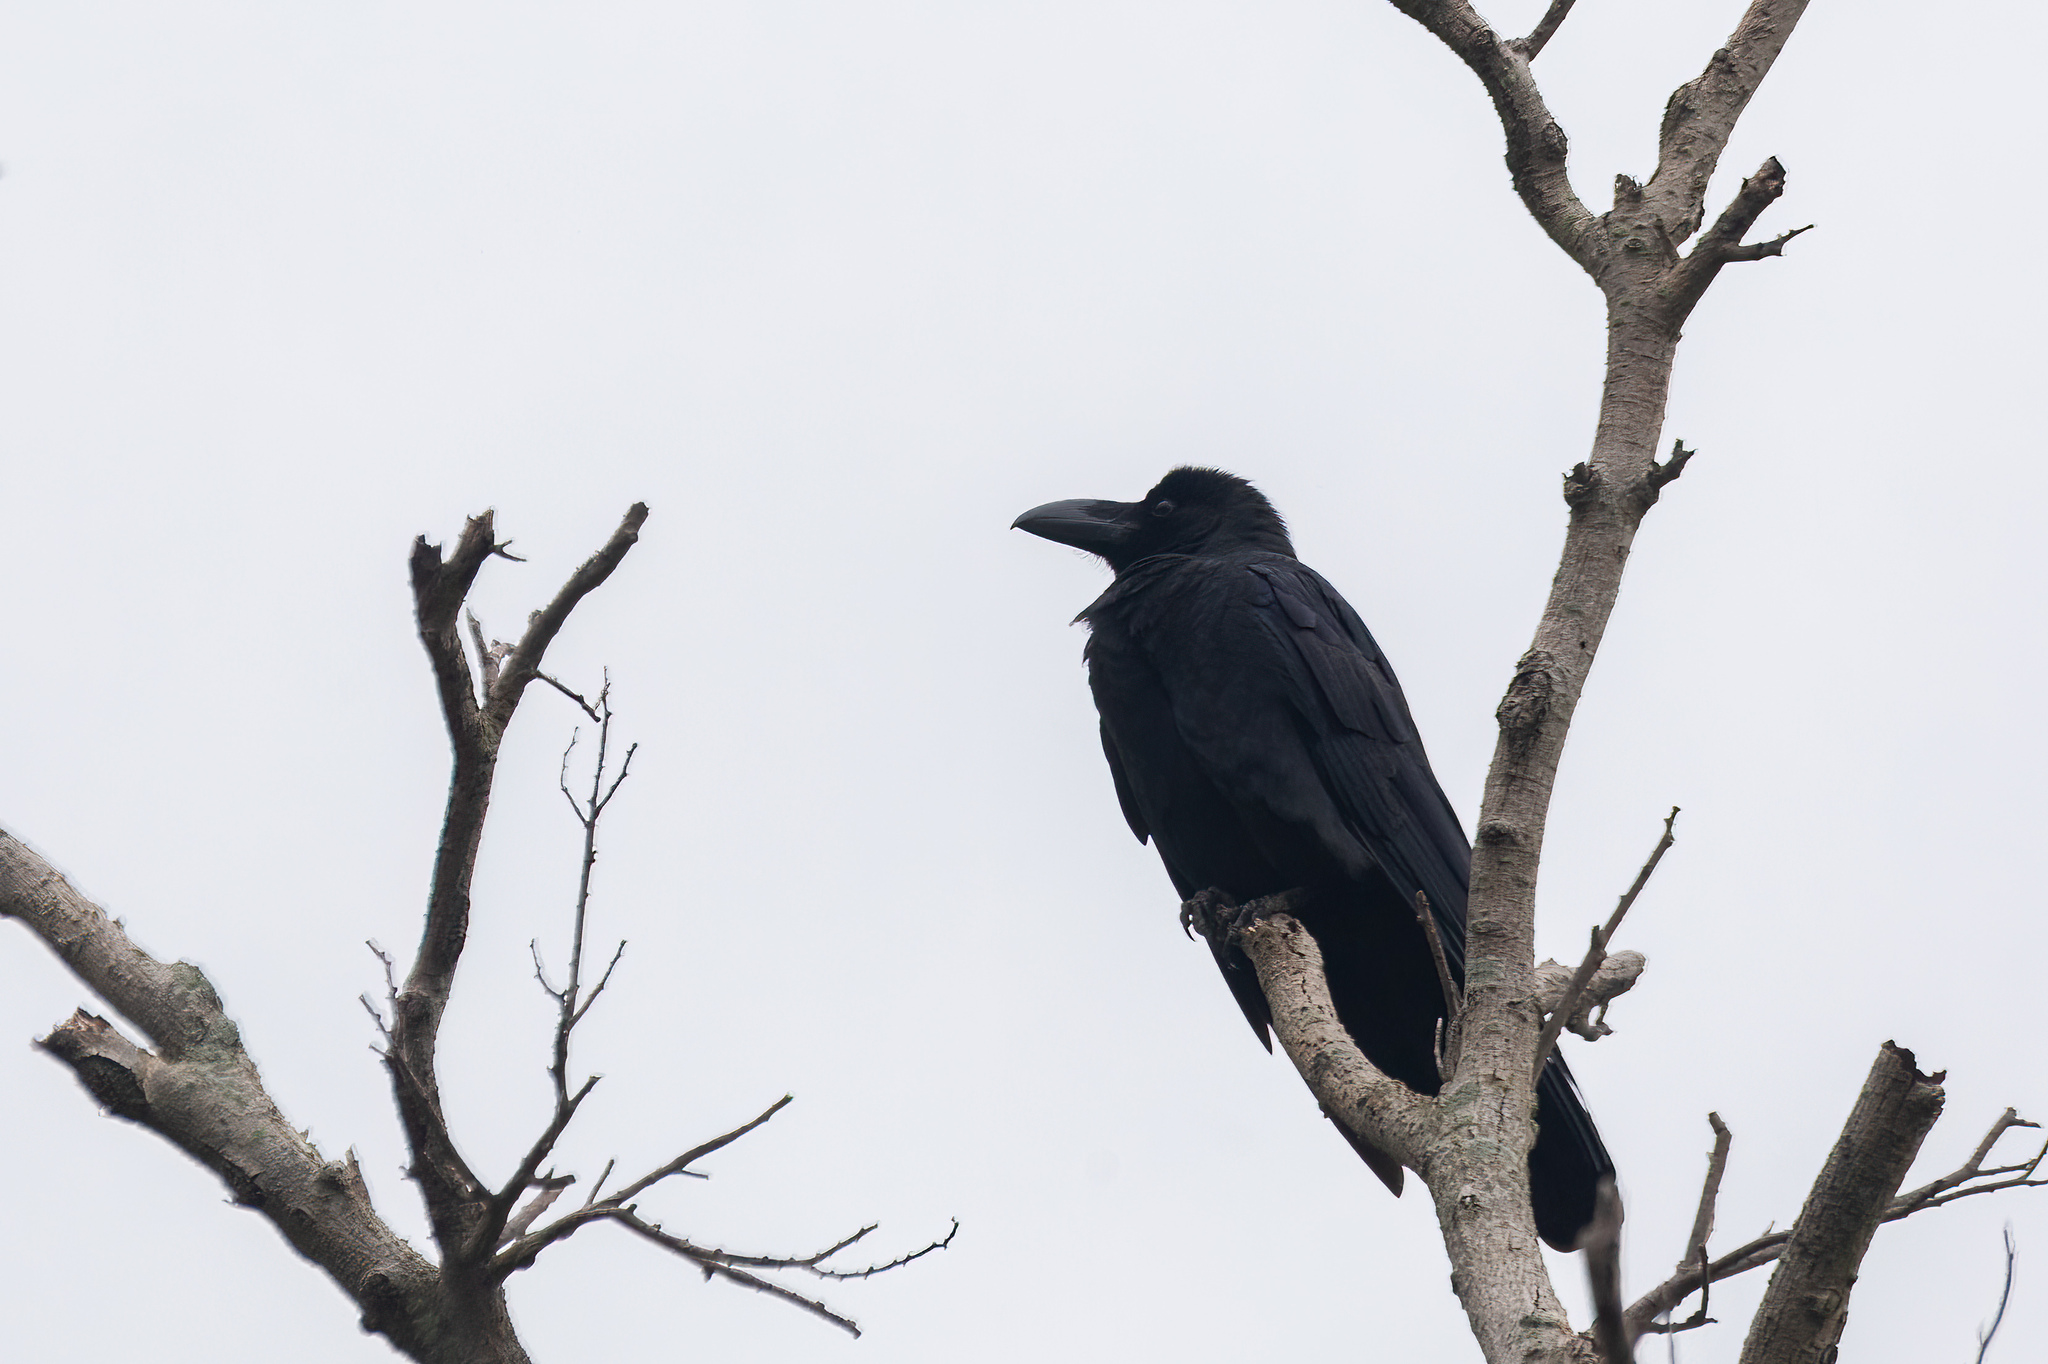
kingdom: Animalia
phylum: Chordata
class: Aves
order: Passeriformes
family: Corvidae
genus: Corvus
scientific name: Corvus macrorhynchos
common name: Large-billed crow
